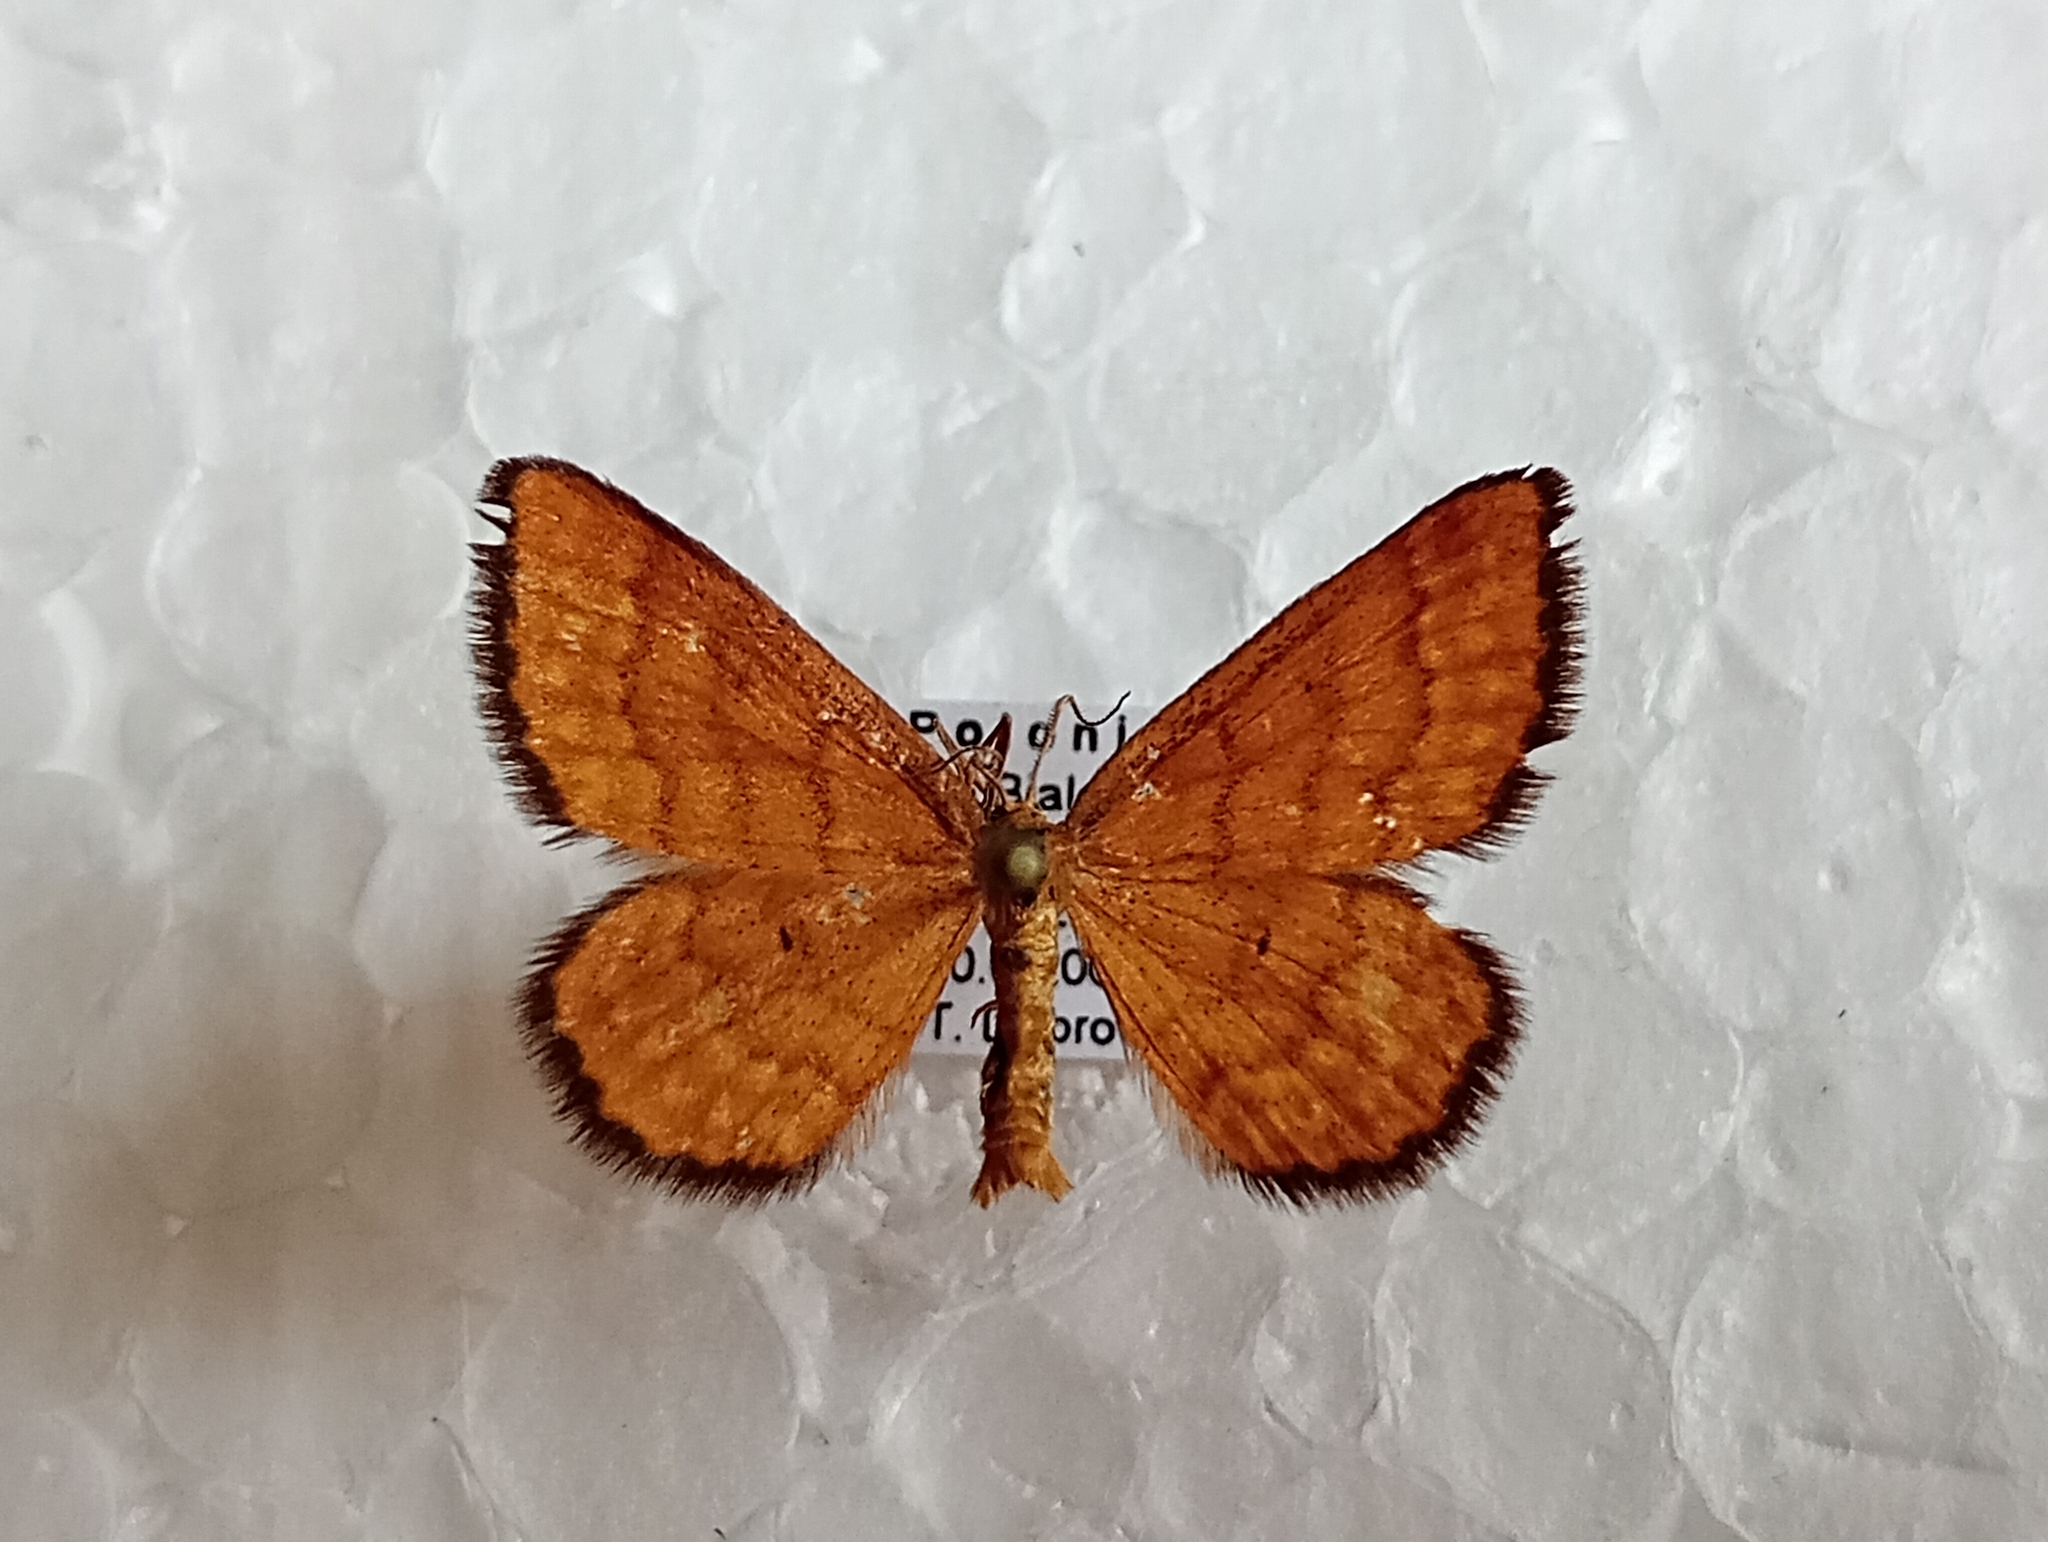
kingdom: Animalia
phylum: Arthropoda
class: Insecta
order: Lepidoptera
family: Geometridae
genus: Idaea
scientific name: Idaea serpentata
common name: Ochraceous wave
